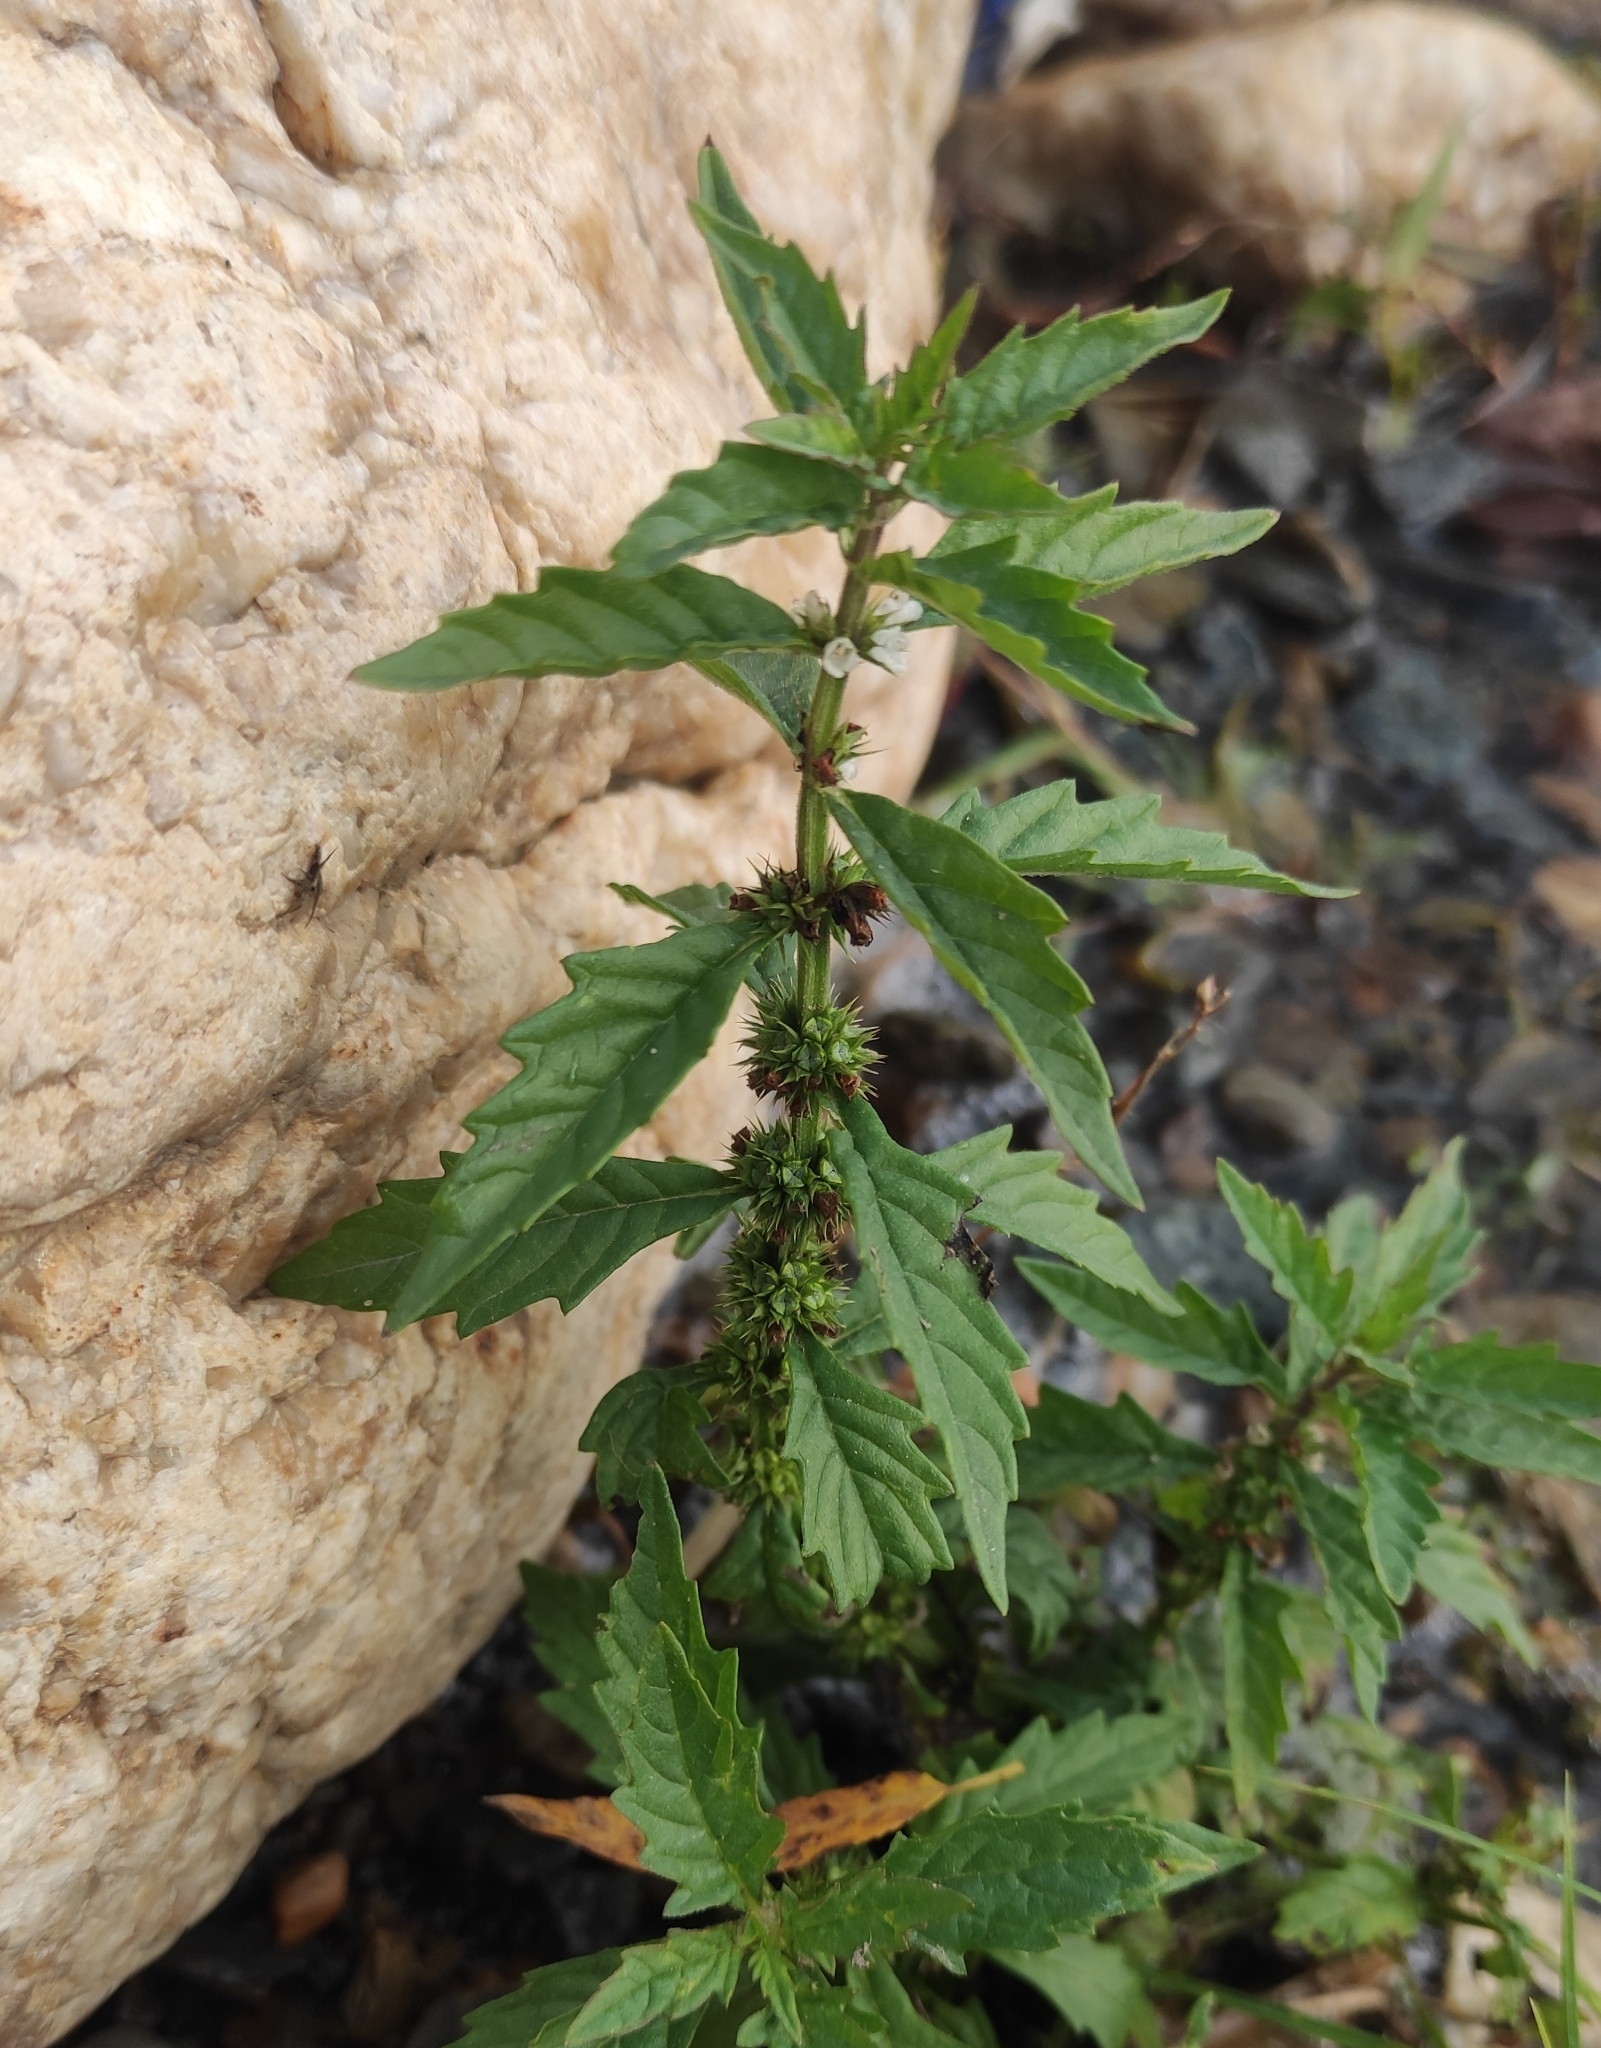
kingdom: Plantae
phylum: Tracheophyta
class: Magnoliopsida
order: Lamiales
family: Lamiaceae
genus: Lycopus
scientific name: Lycopus europaeus
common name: European bugleweed
